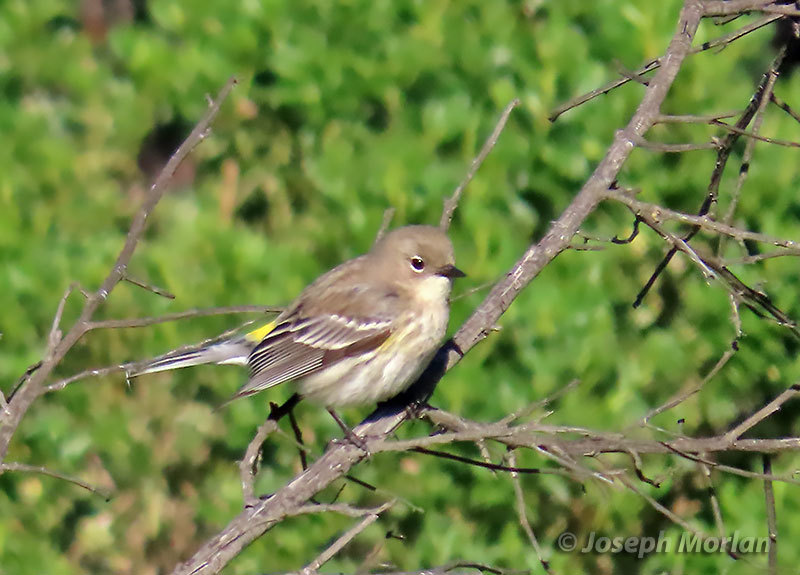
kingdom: Animalia
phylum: Chordata
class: Aves
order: Passeriformes
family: Parulidae
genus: Setophaga
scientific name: Setophaga coronata
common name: Myrtle warbler
